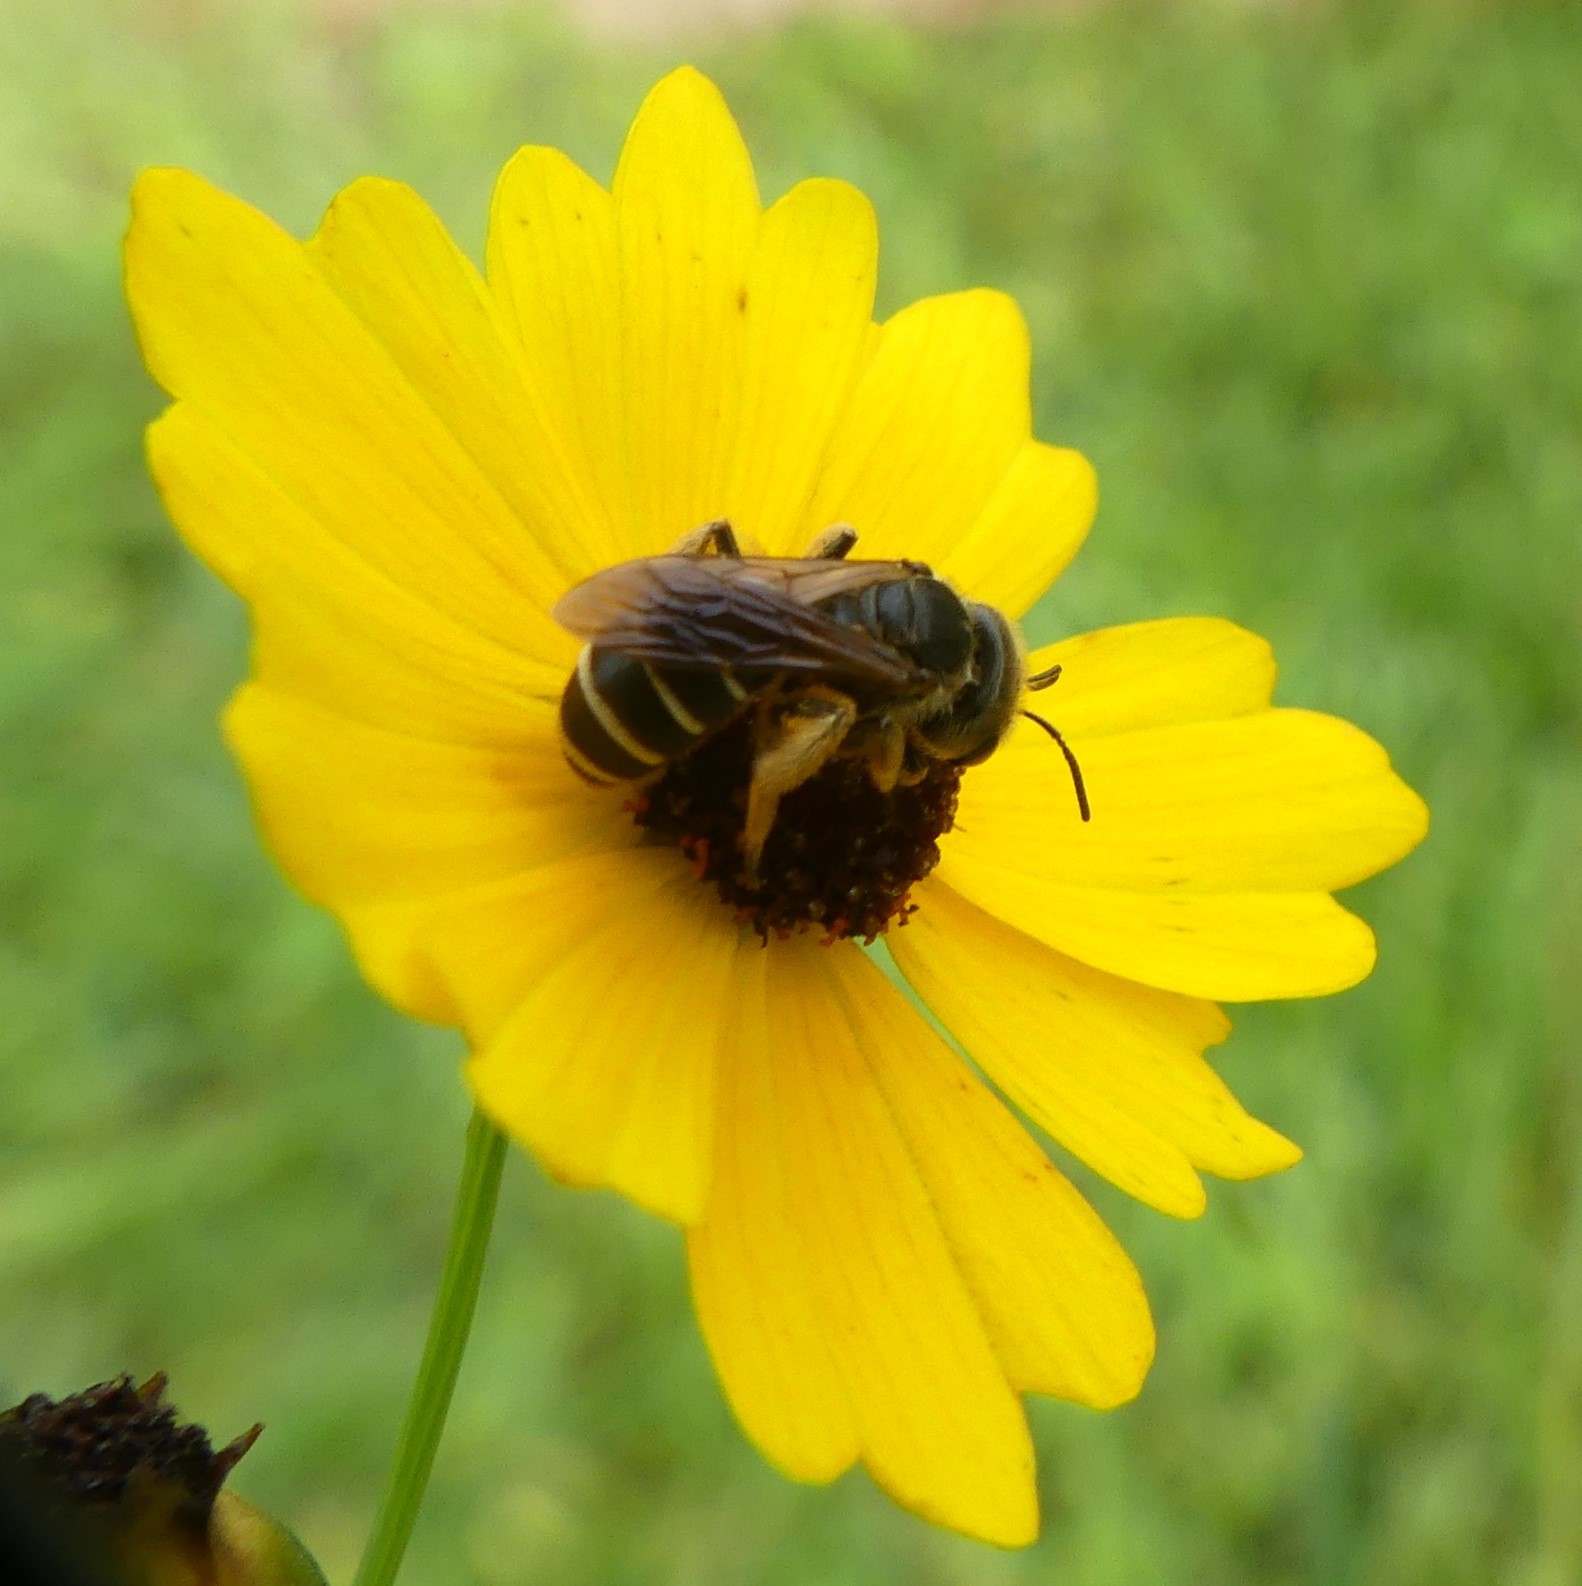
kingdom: Animalia
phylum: Arthropoda
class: Insecta
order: Hymenoptera
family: Halictidae
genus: Halictus
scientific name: Halictus poeyi
